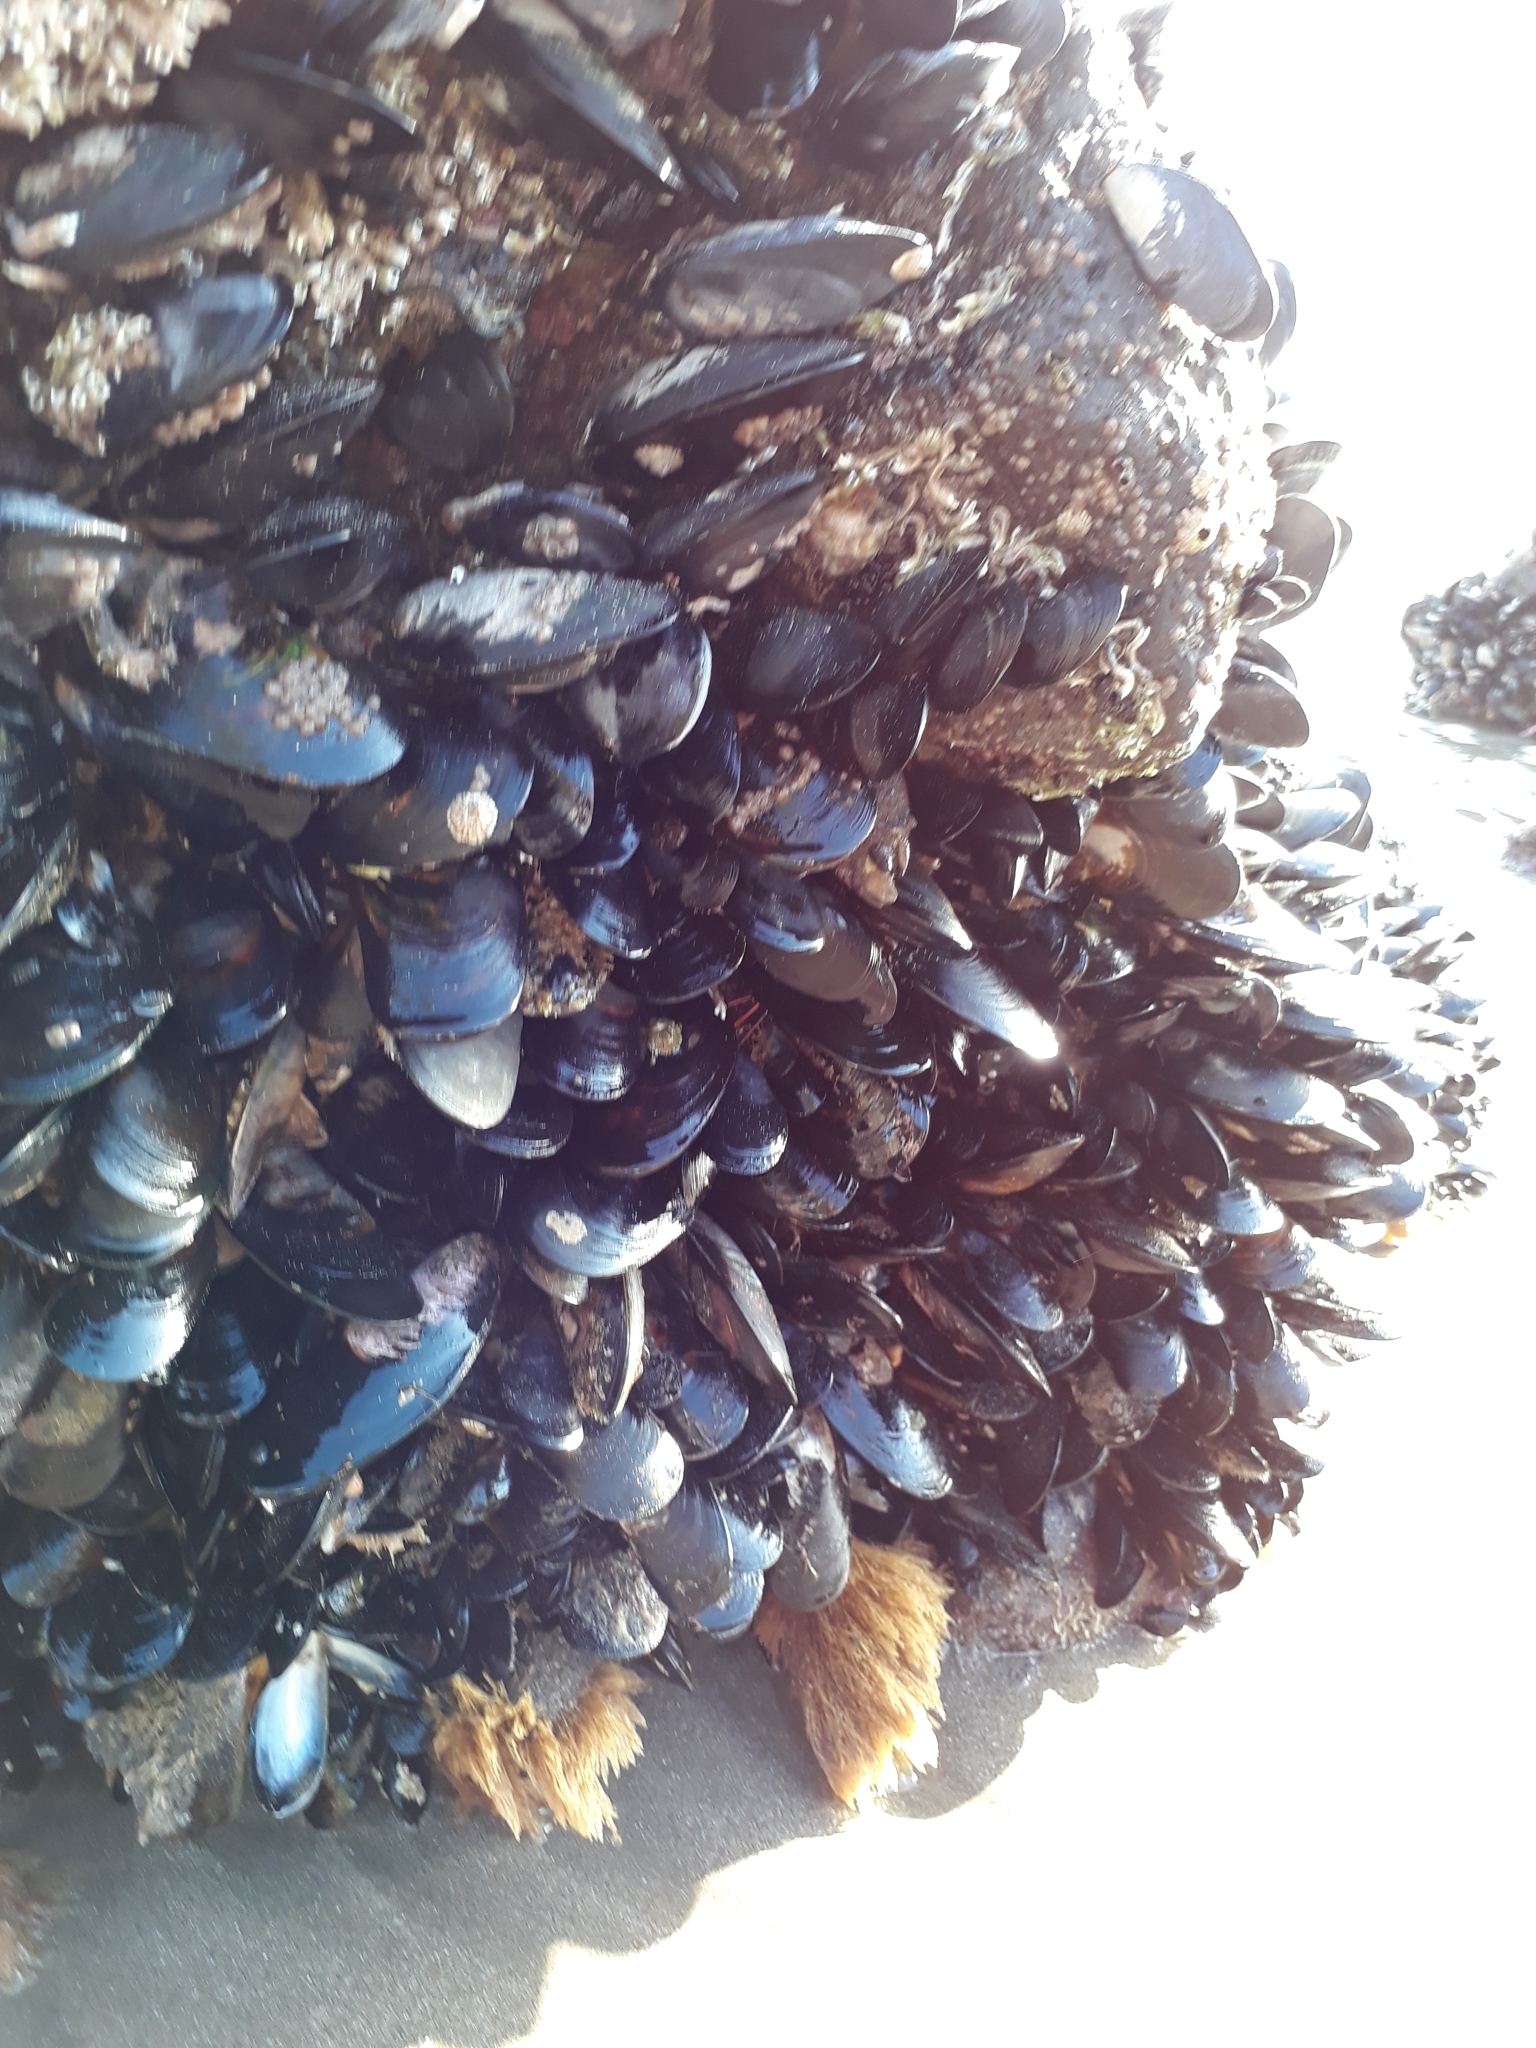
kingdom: Animalia
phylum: Mollusca
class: Bivalvia
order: Mytilida
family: Mytilidae
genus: Perna
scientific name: Perna canaliculus
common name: New zealand greenshelltm
